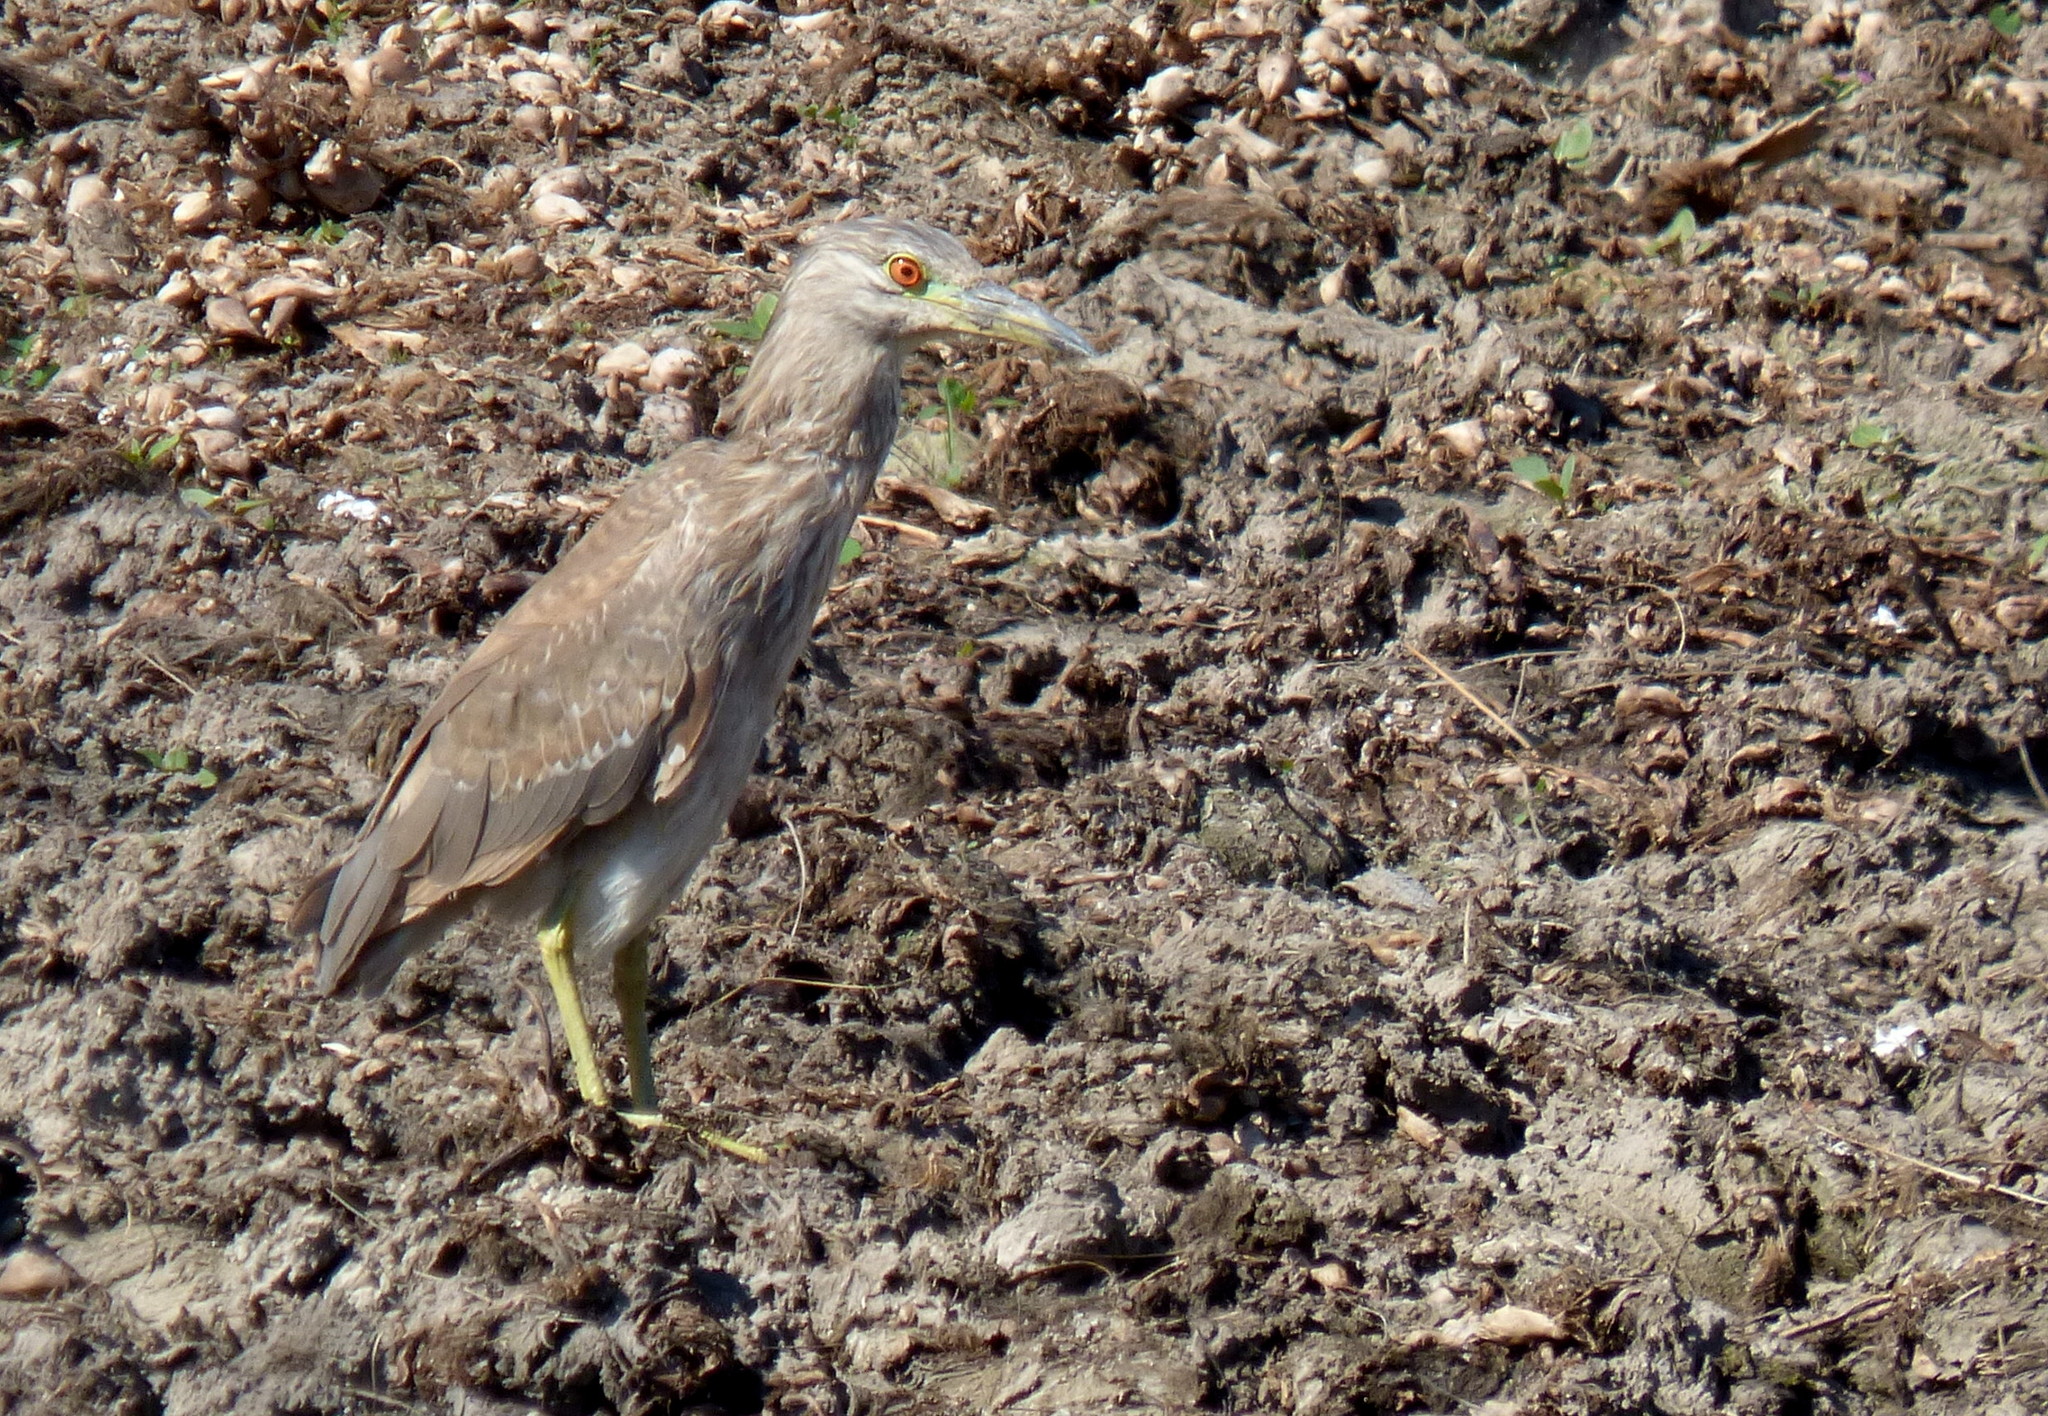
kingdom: Animalia
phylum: Chordata
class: Aves
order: Pelecaniformes
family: Ardeidae
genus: Nycticorax
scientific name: Nycticorax nycticorax
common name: Black-crowned night heron
